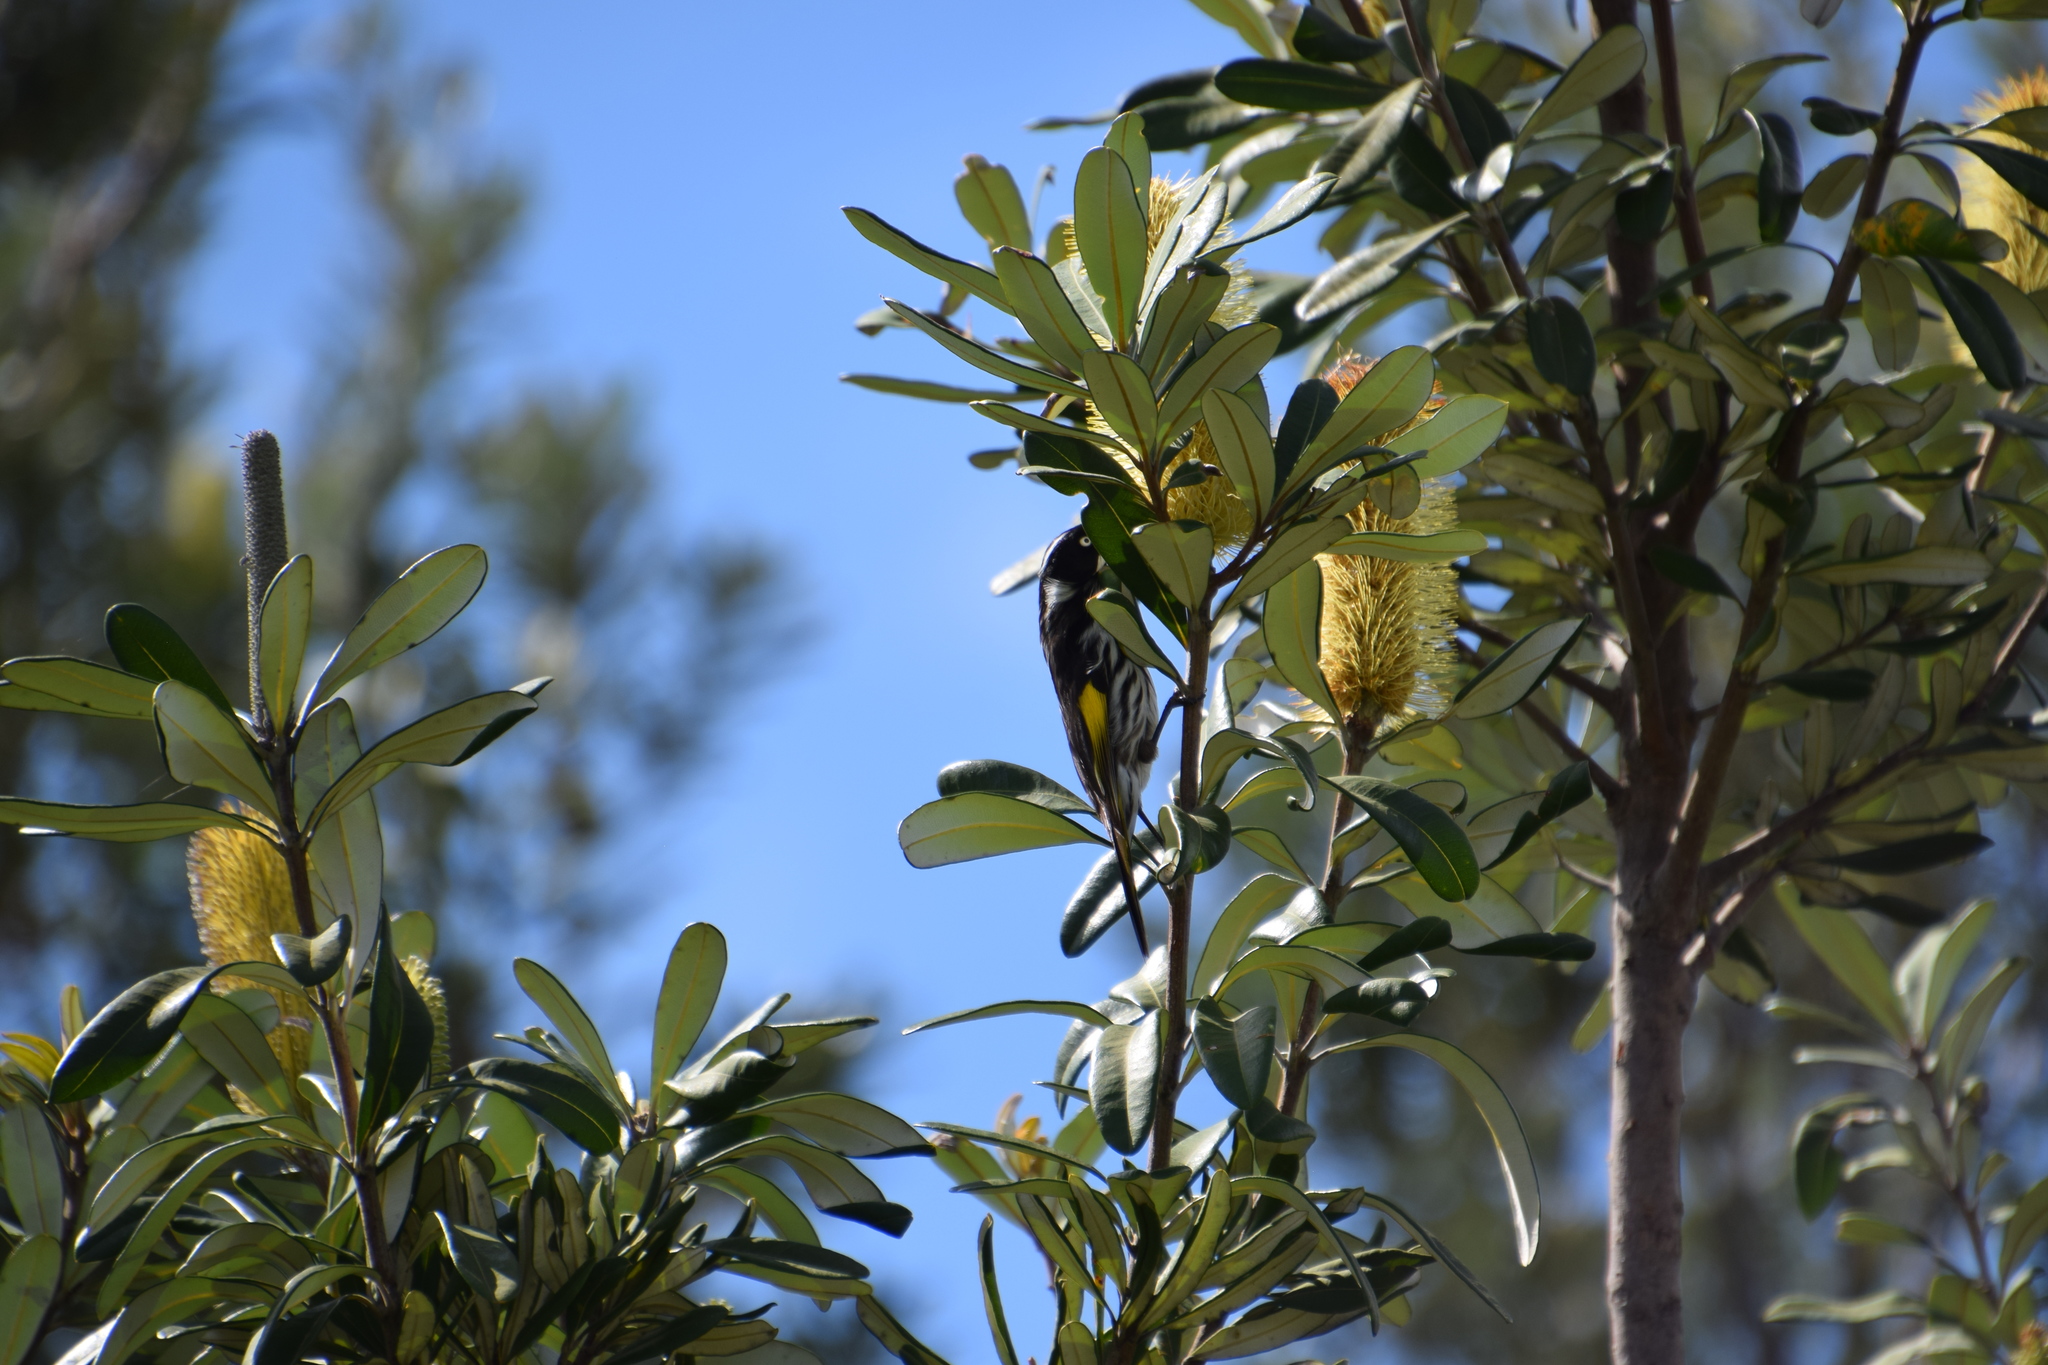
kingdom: Animalia
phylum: Chordata
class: Aves
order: Passeriformes
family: Meliphagidae
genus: Phylidonyris
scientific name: Phylidonyris novaehollandiae
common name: New holland honeyeater
